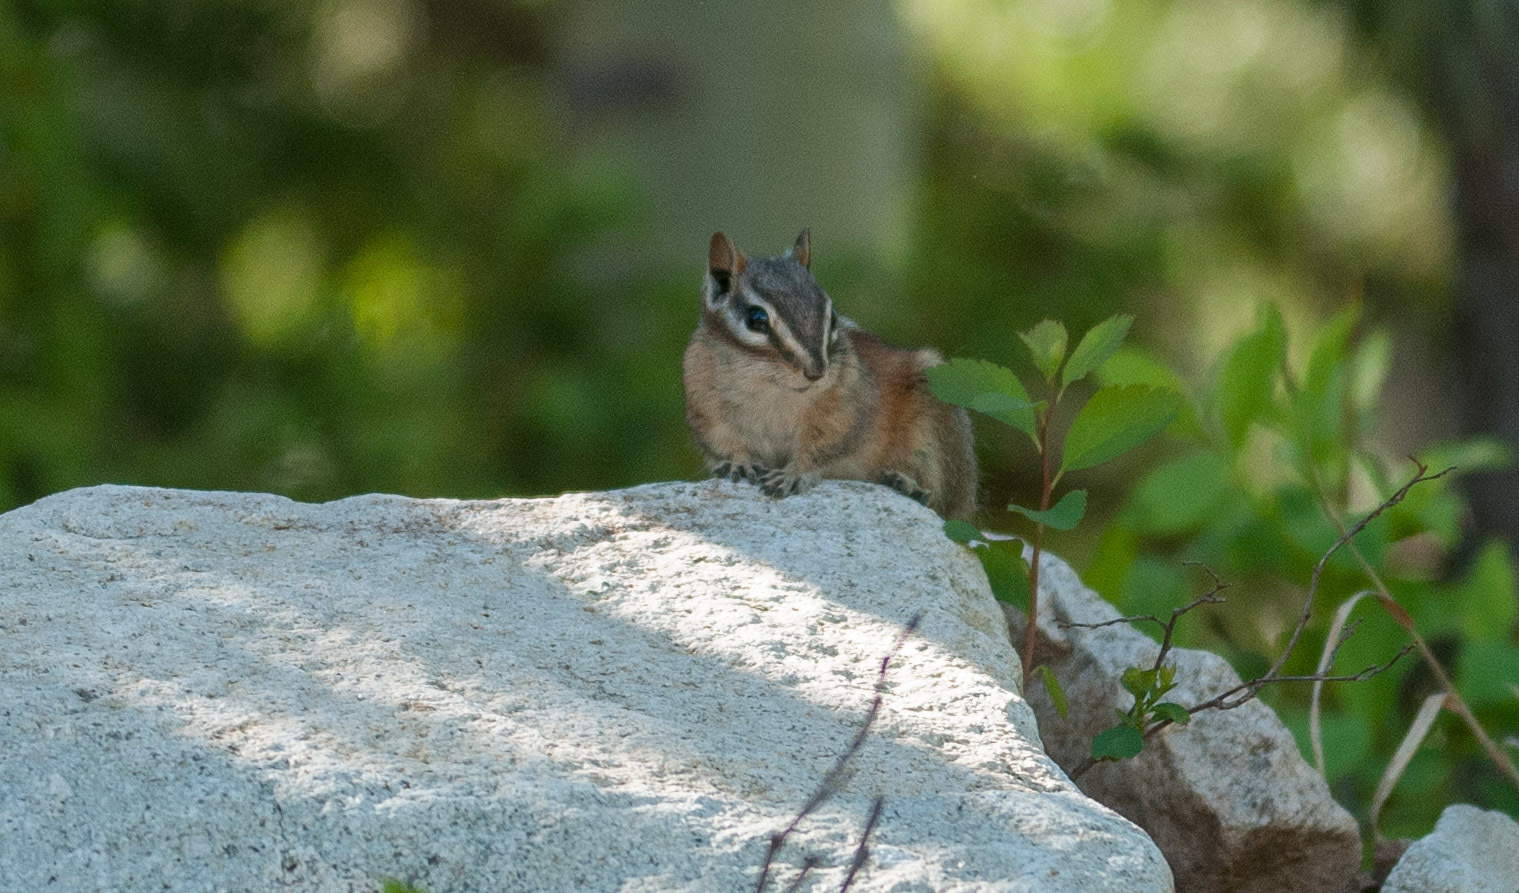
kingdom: Animalia
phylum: Chordata
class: Mammalia
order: Rodentia
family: Sciuridae
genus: Tamias
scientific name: Tamias minimus
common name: Least chipmunk
